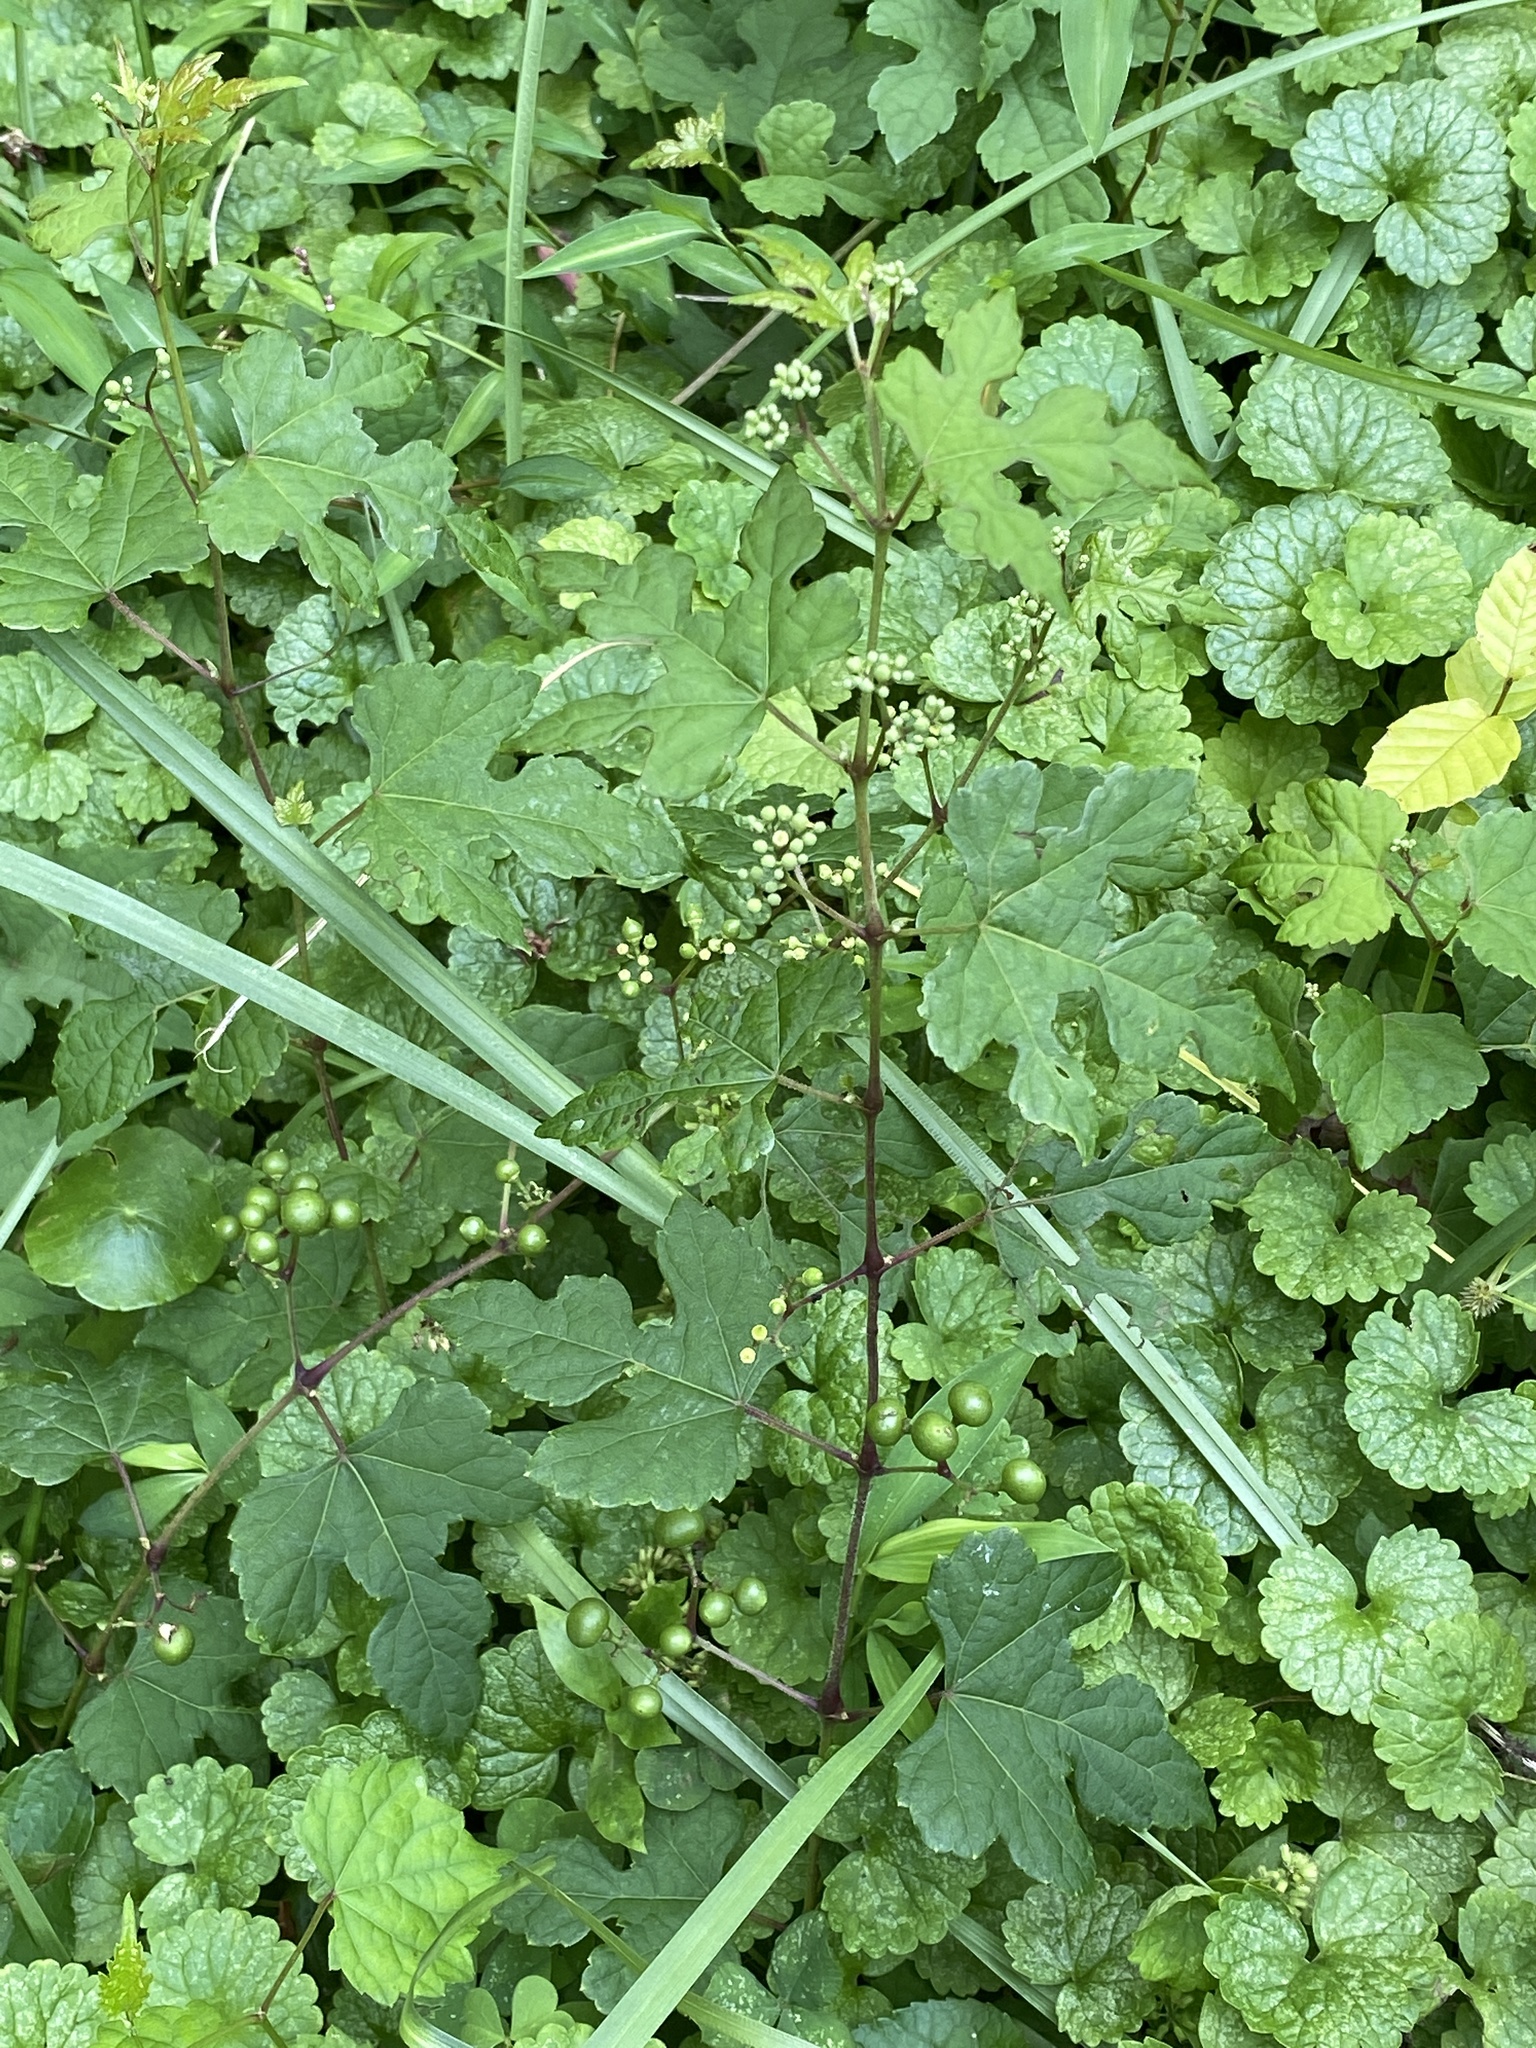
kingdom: Plantae
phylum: Tracheophyta
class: Magnoliopsida
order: Vitales
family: Vitaceae
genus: Ampelopsis
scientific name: Ampelopsis glandulosa
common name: Amur peppervine
